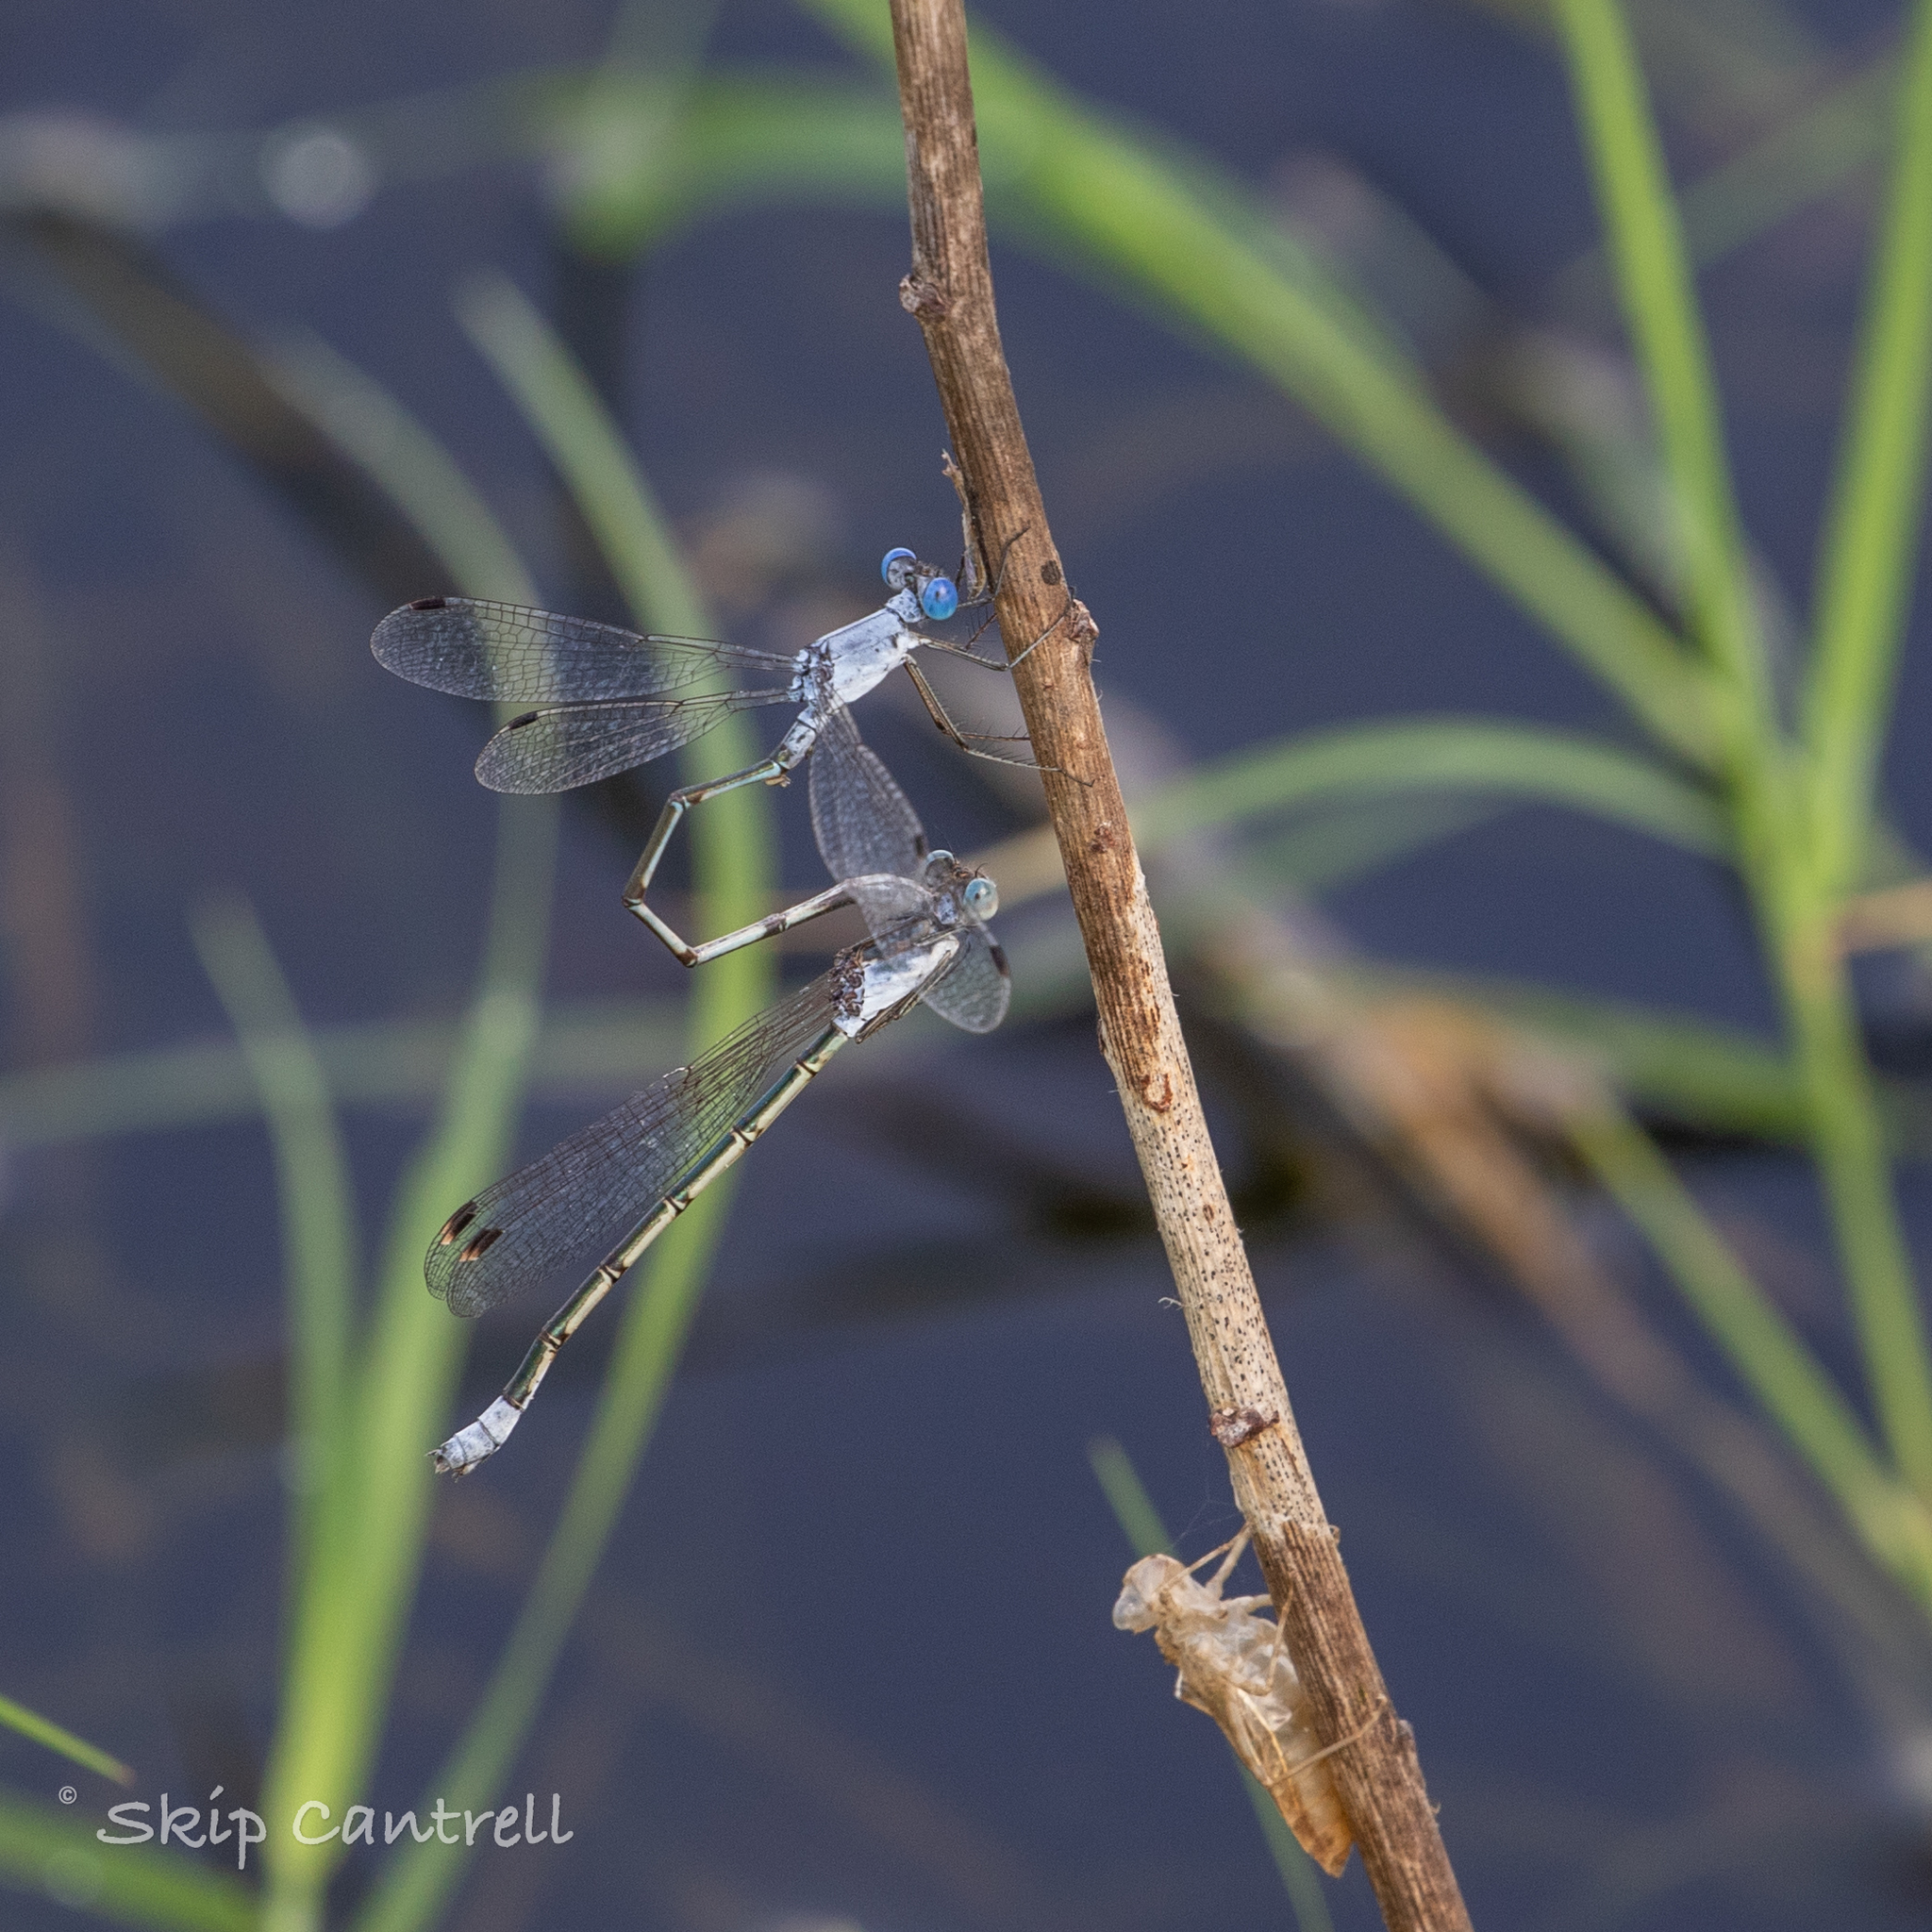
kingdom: Animalia
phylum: Arthropoda
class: Insecta
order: Odonata
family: Lestidae
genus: Lestes
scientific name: Lestes sigma
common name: Chalky spreadwing
